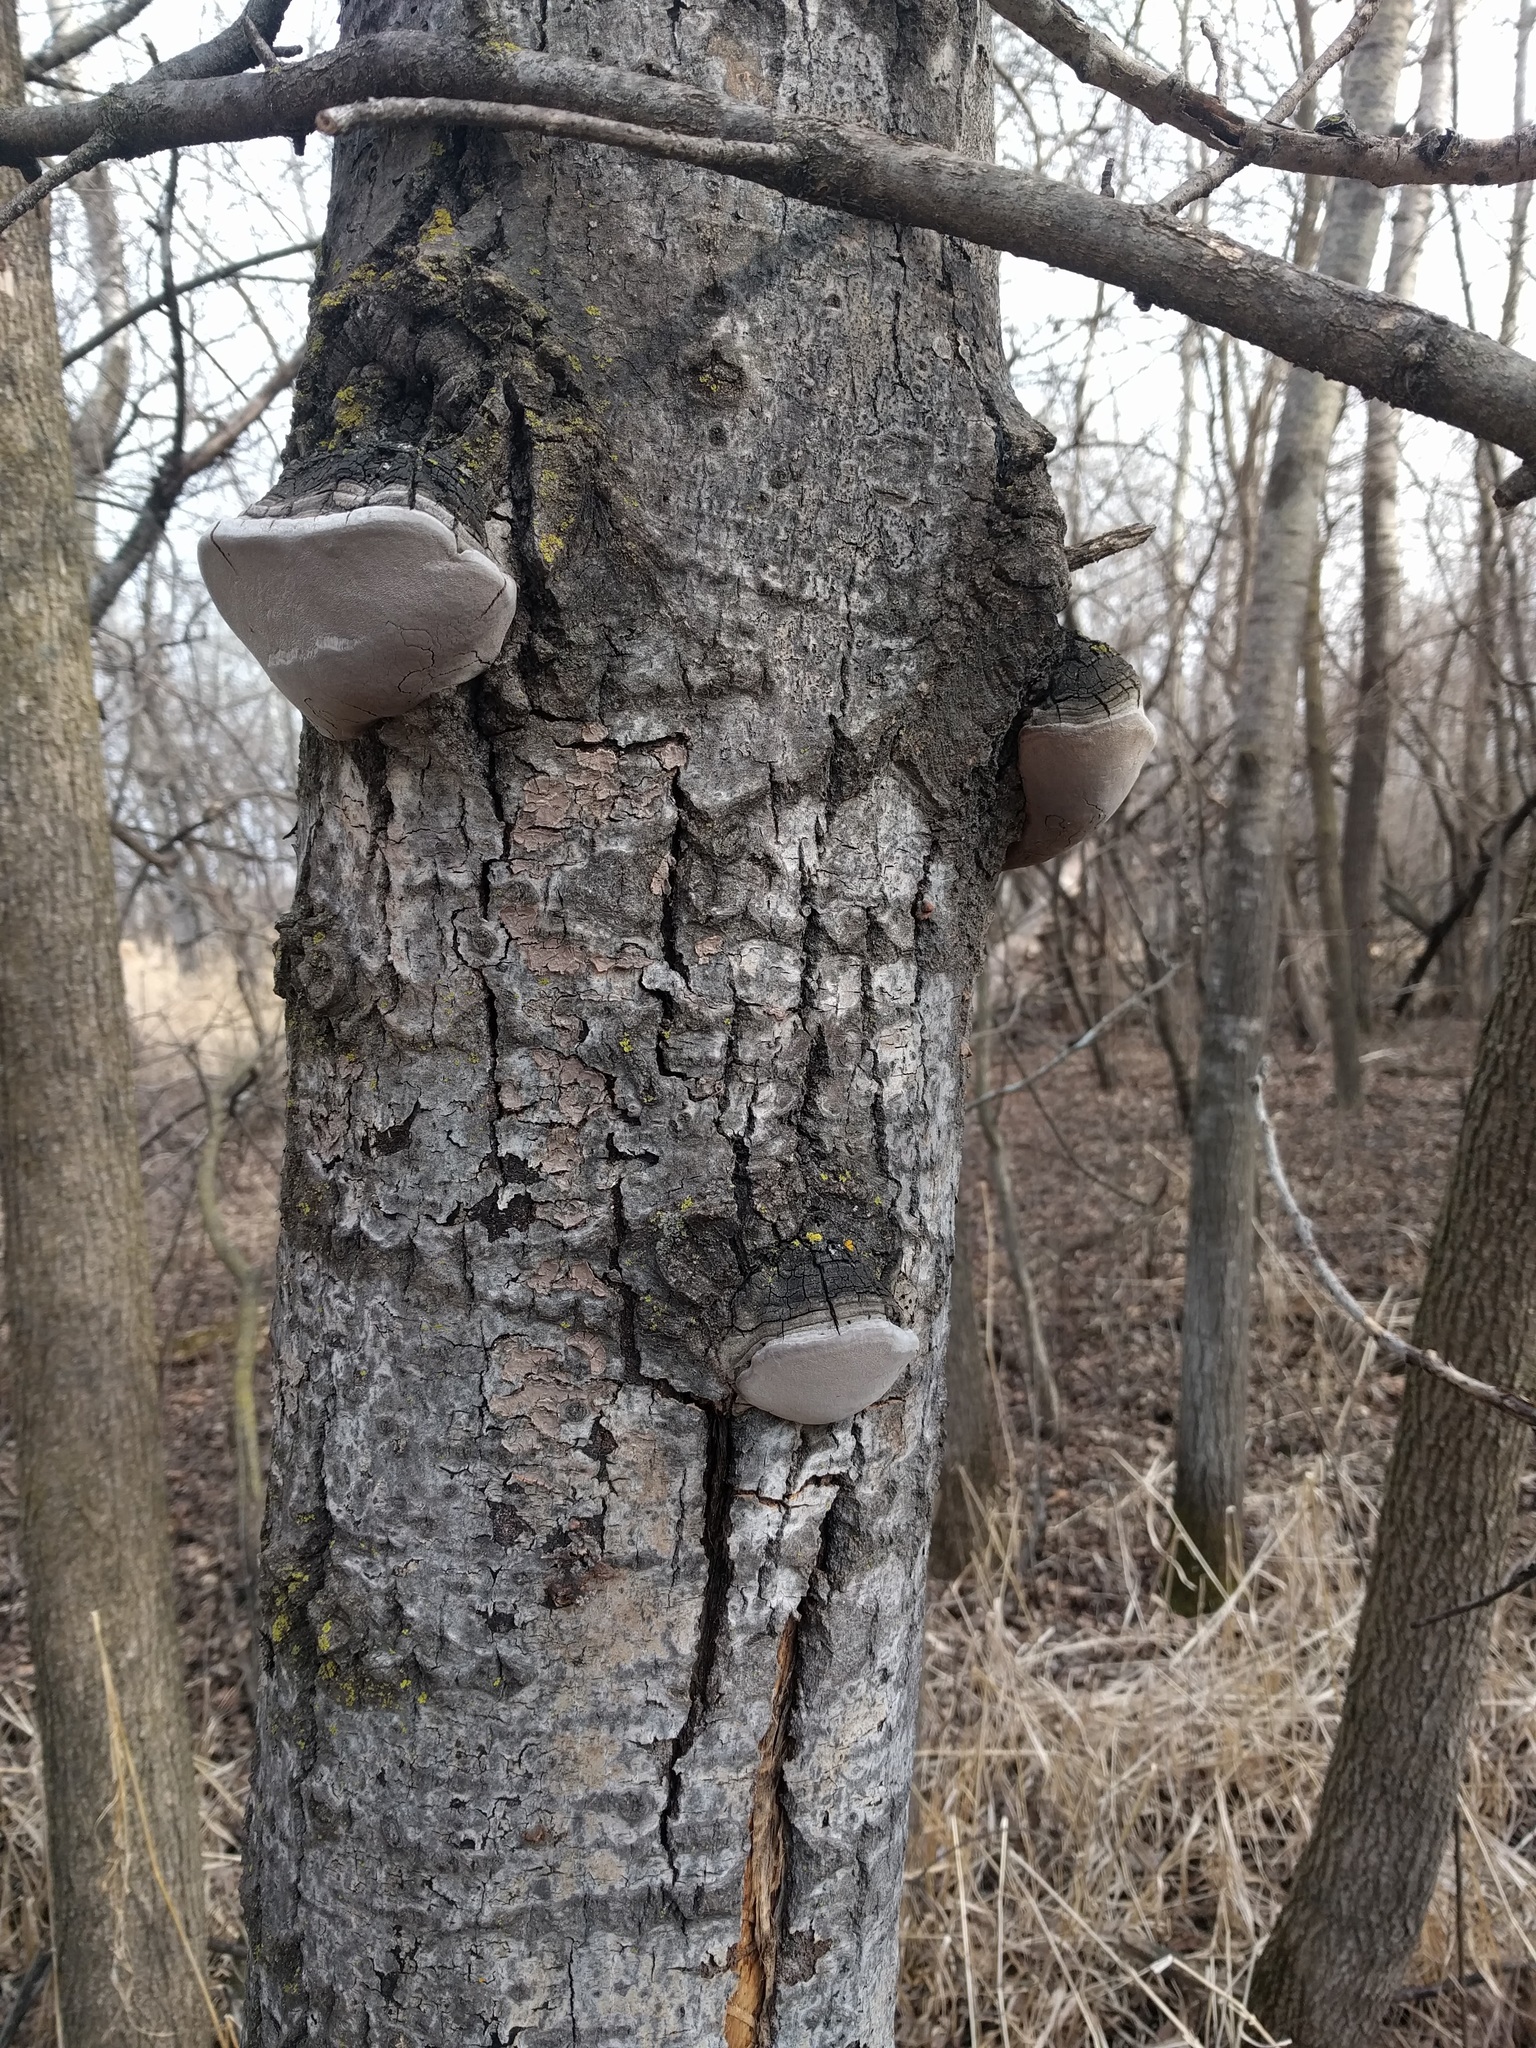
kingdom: Fungi
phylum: Basidiomycota
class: Agaricomycetes
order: Hymenochaetales
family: Hymenochaetaceae
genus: Phellinus
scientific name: Phellinus tremulae
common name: Aspen bracket
